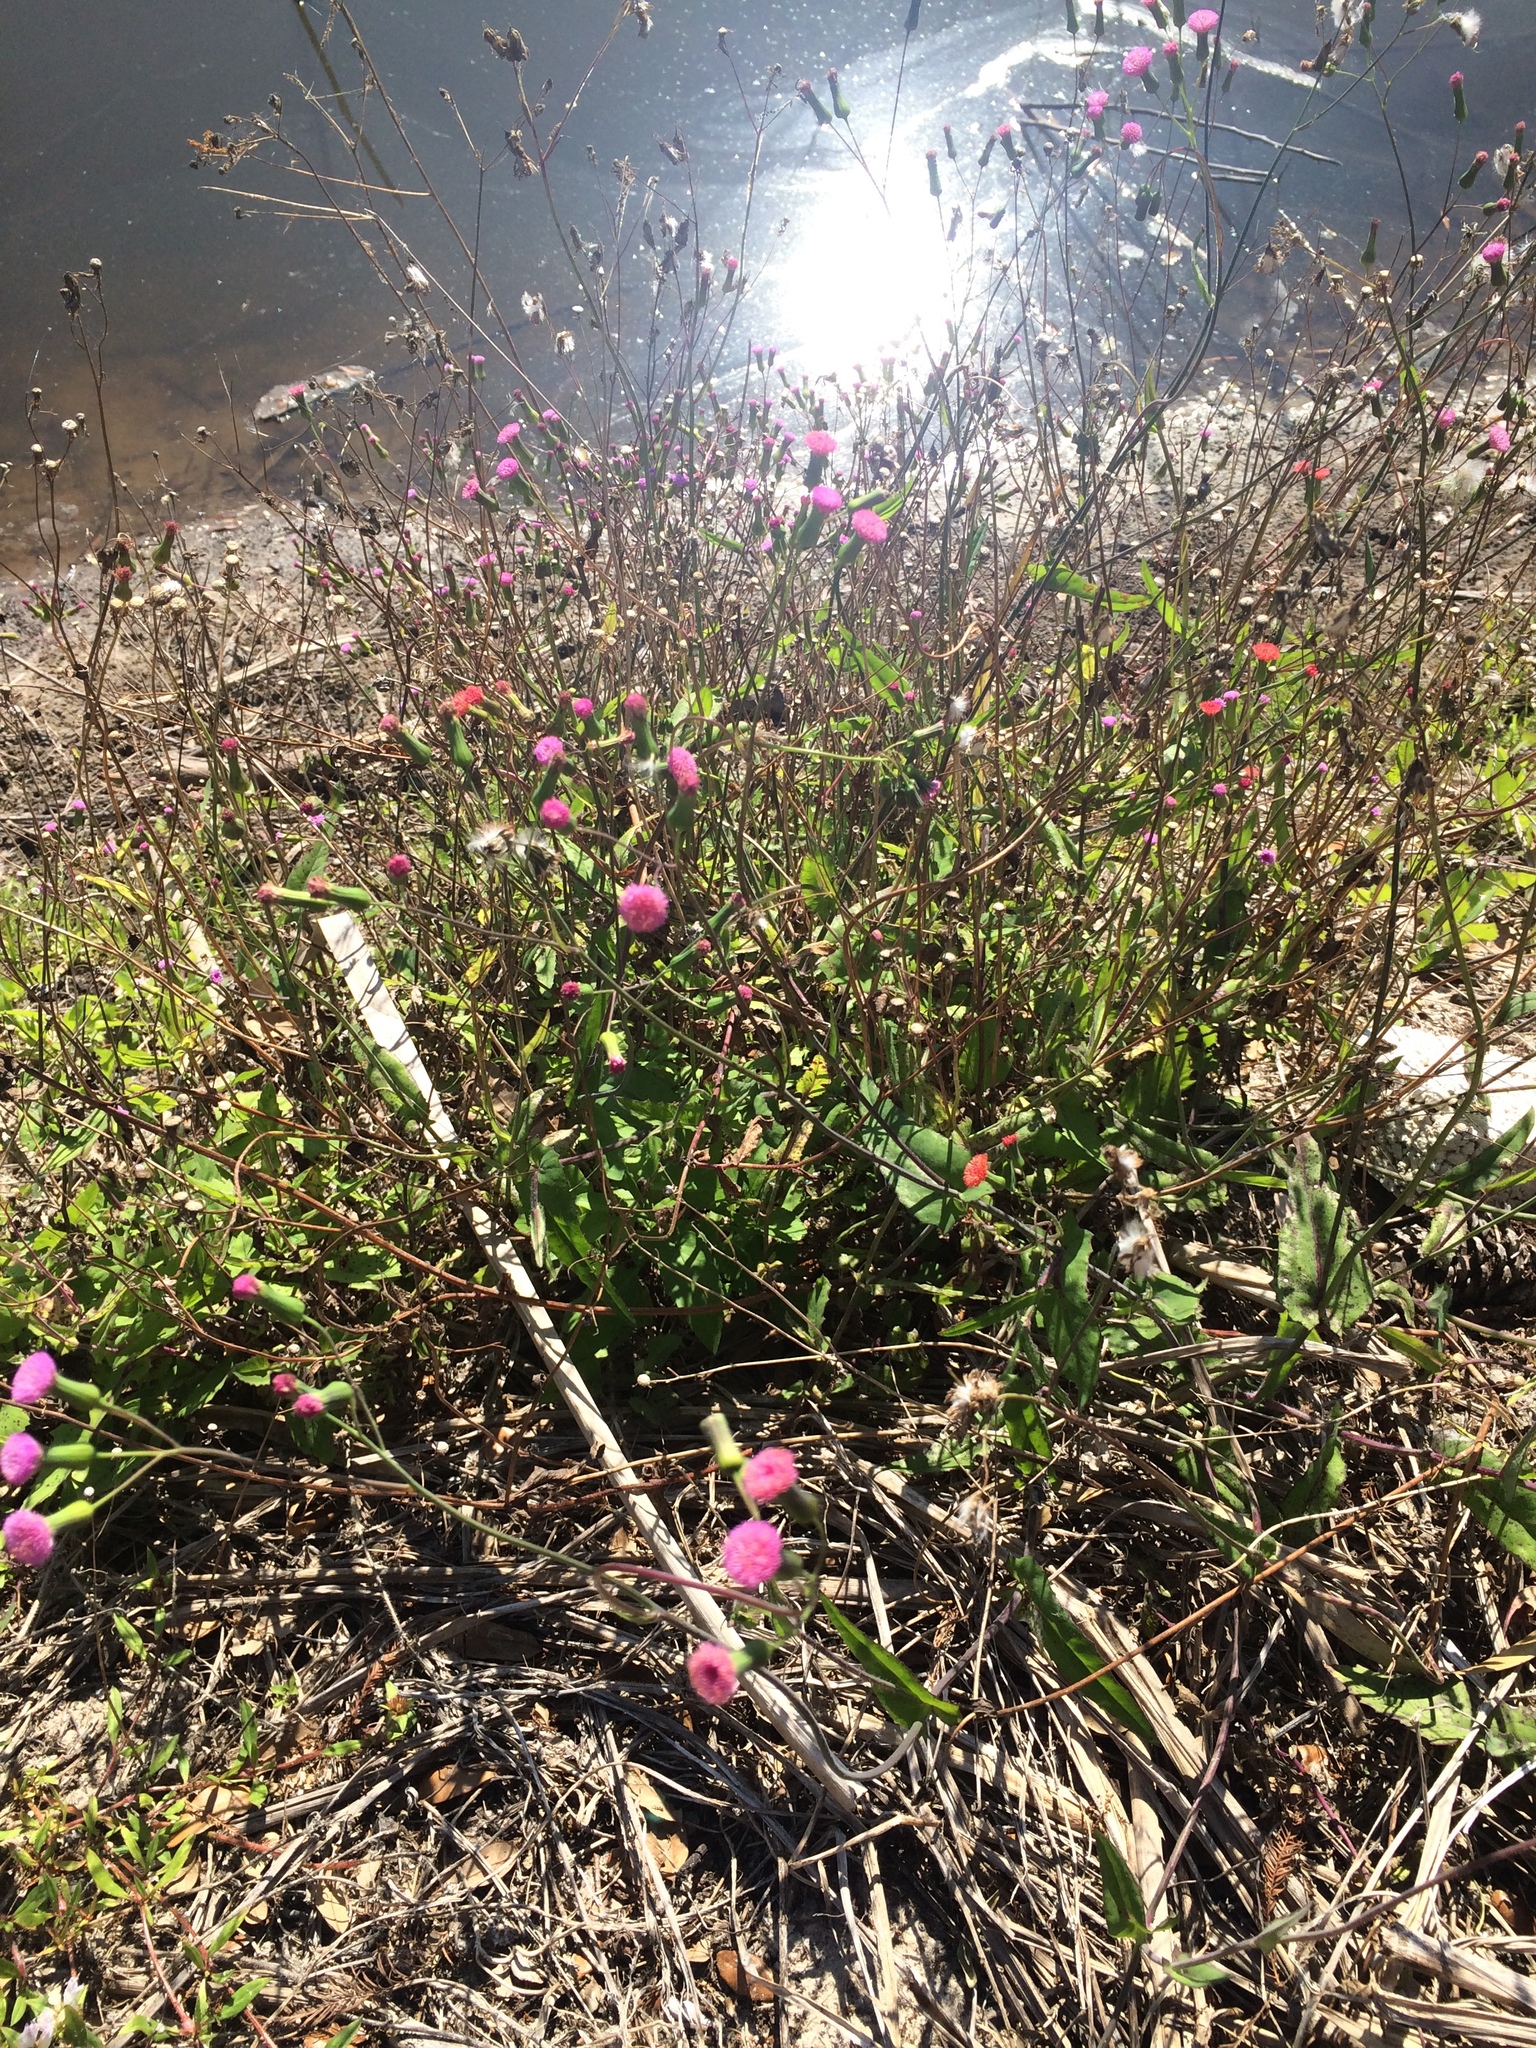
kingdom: Plantae
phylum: Tracheophyta
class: Magnoliopsida
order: Asterales
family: Asteraceae
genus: Emilia
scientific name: Emilia sonchifolia
